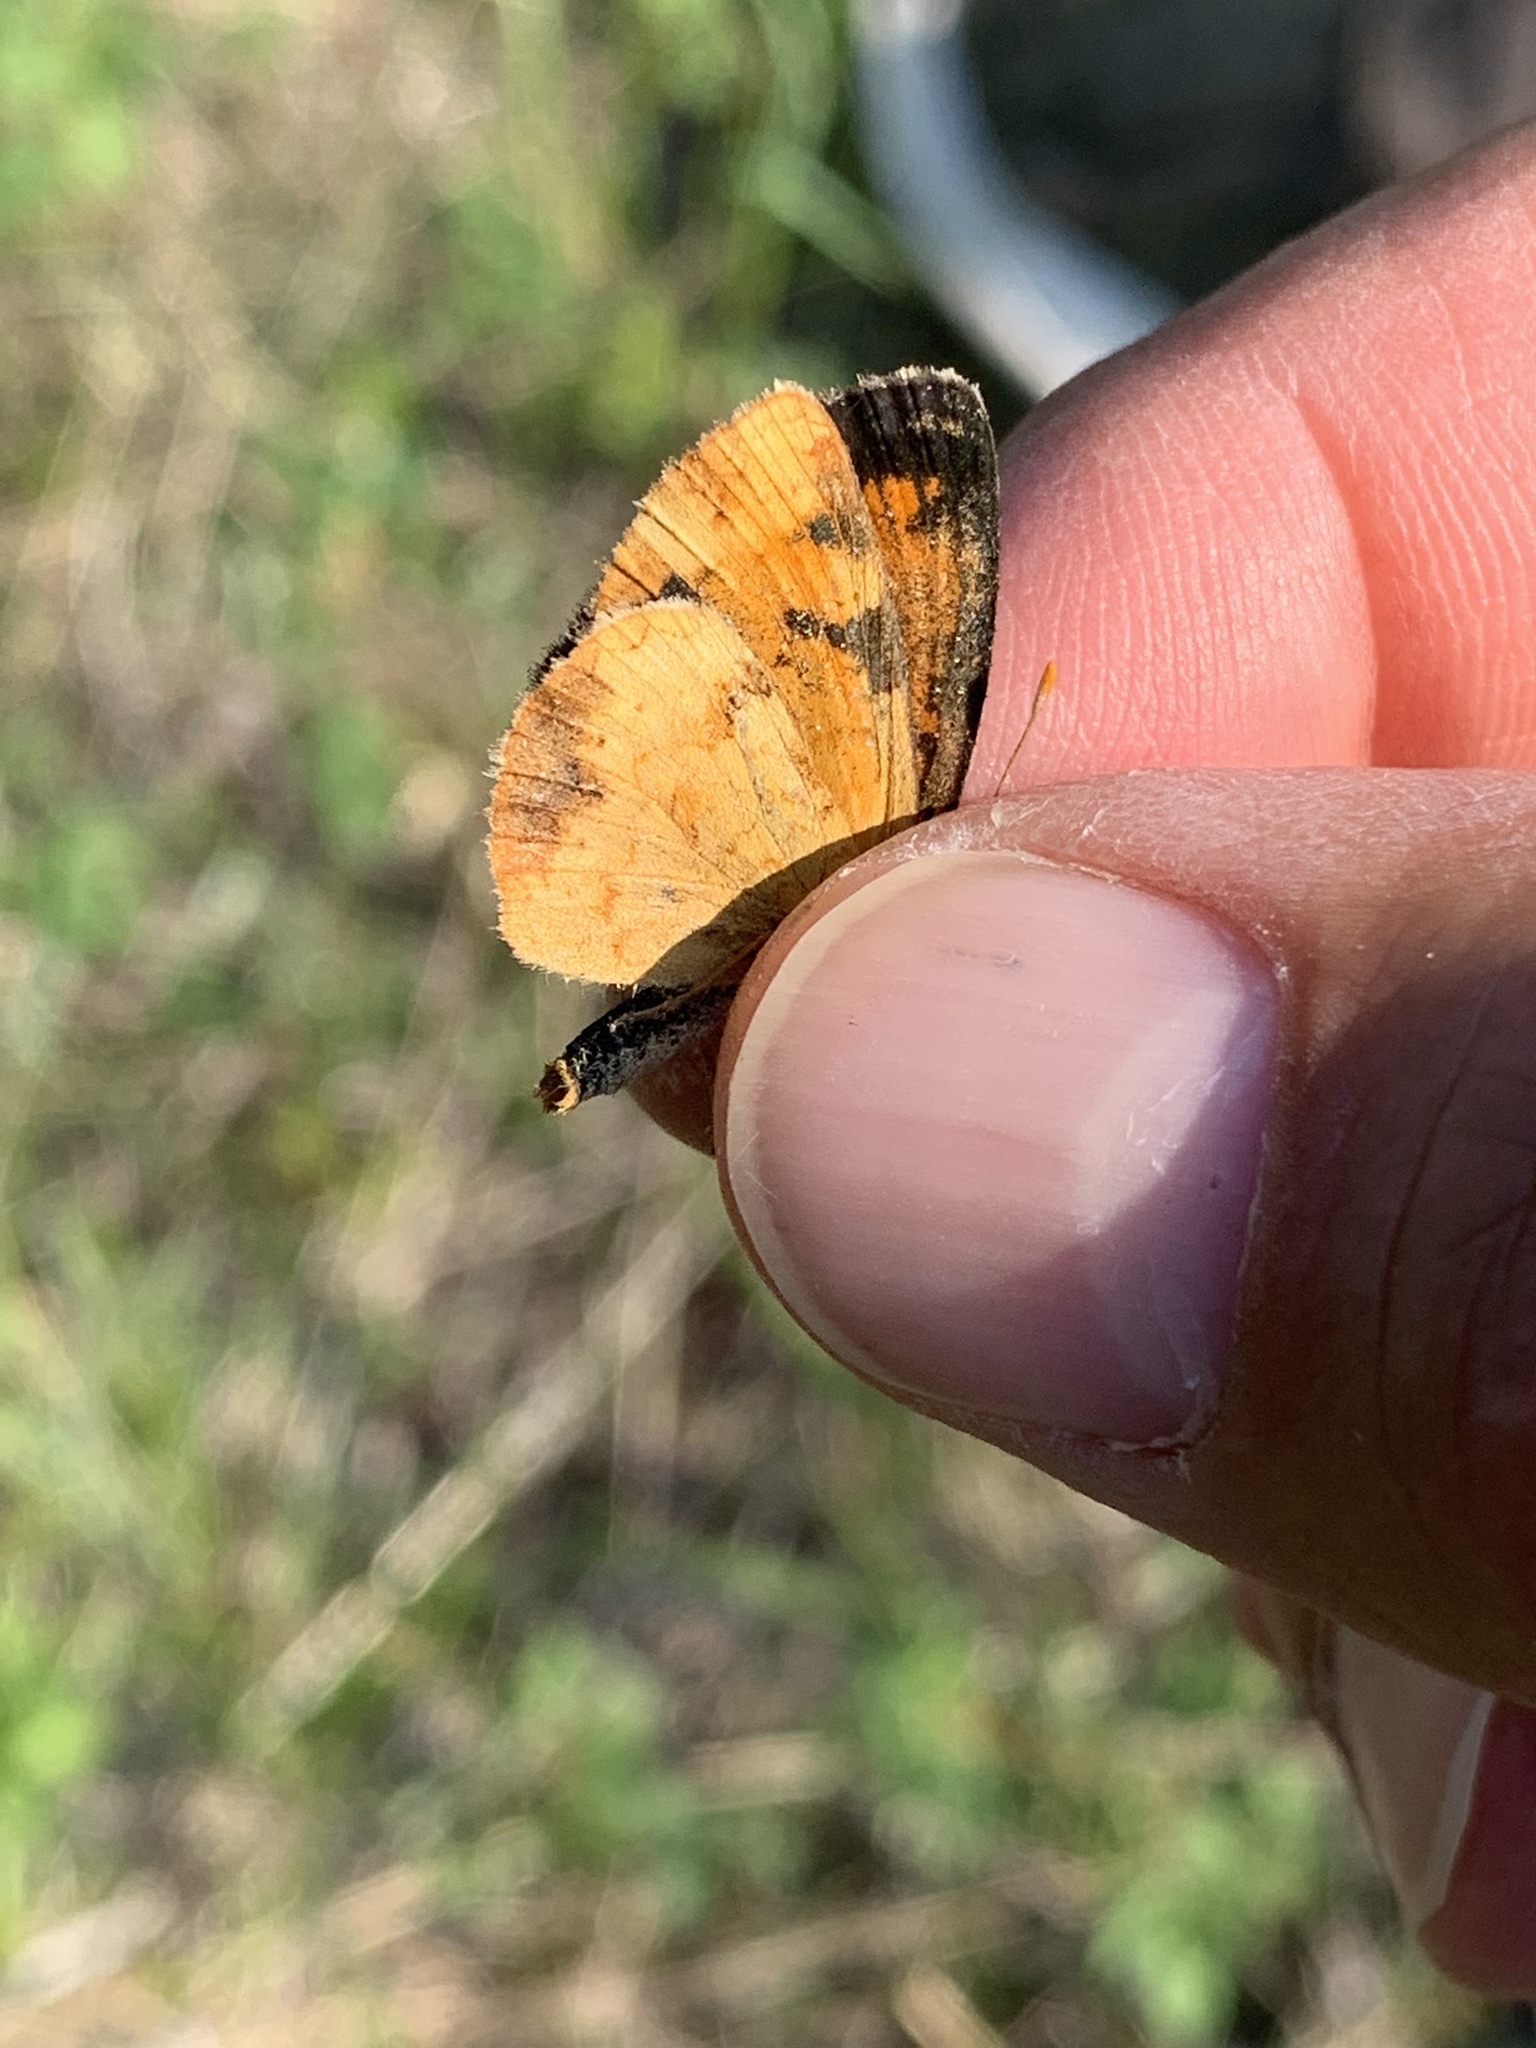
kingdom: Animalia
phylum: Arthropoda
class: Insecta
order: Lepidoptera
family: Nymphalidae
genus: Phyciodes
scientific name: Phyciodes tharos
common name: Pearl crescent
